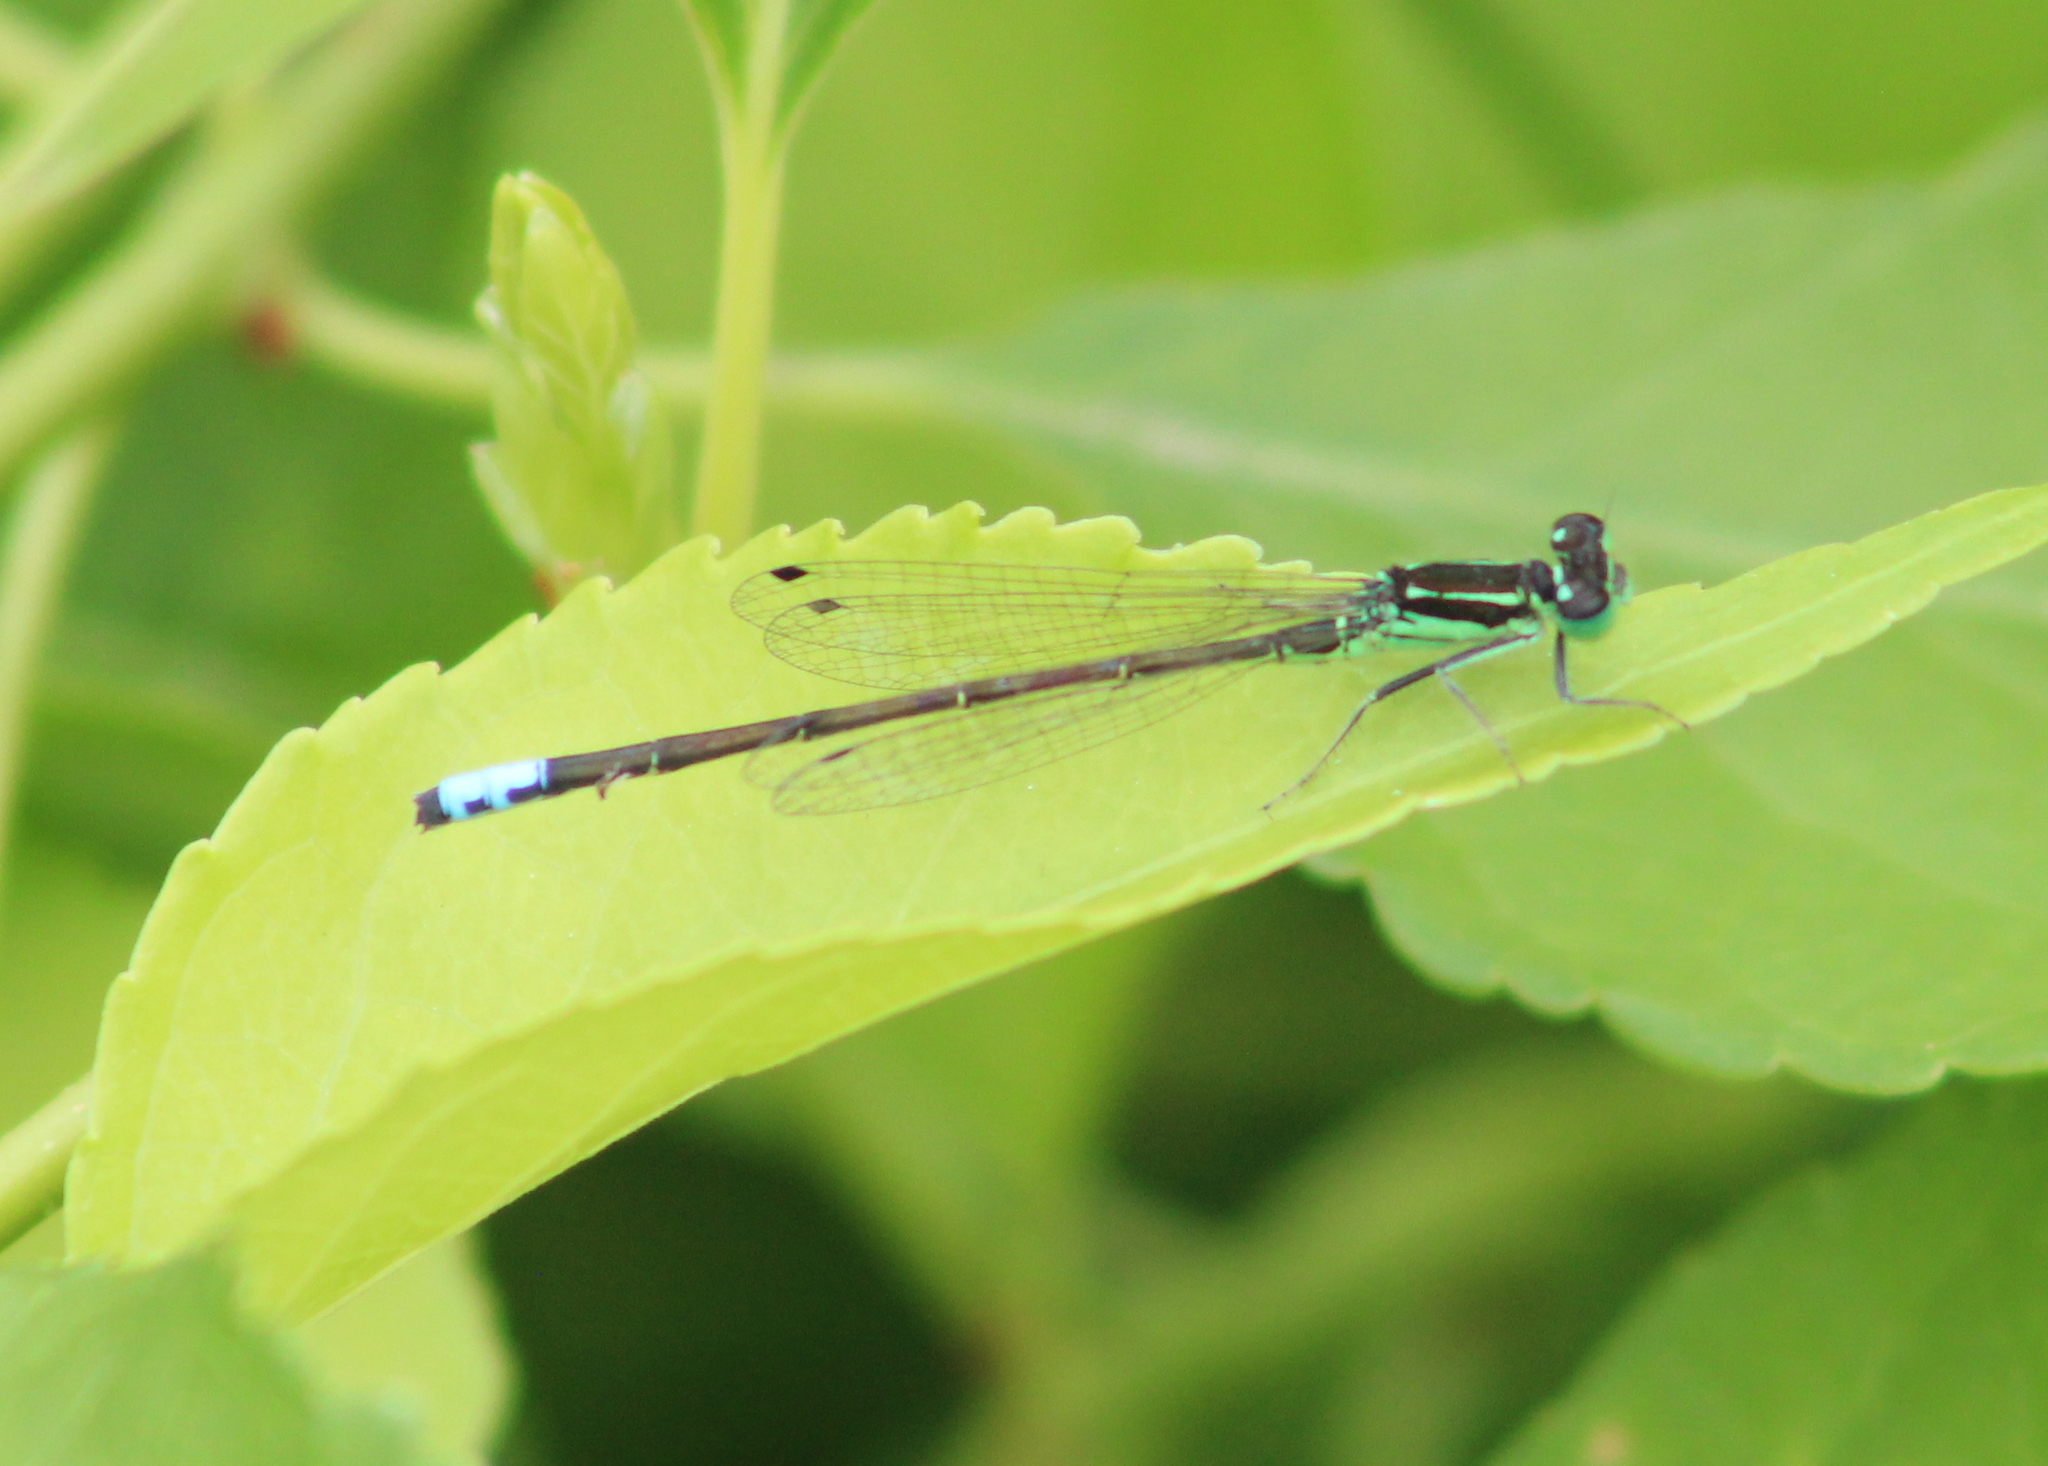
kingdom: Animalia
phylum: Arthropoda
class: Insecta
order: Odonata
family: Coenagrionidae
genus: Ischnura
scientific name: Ischnura verticalis
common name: Eastern forktail
